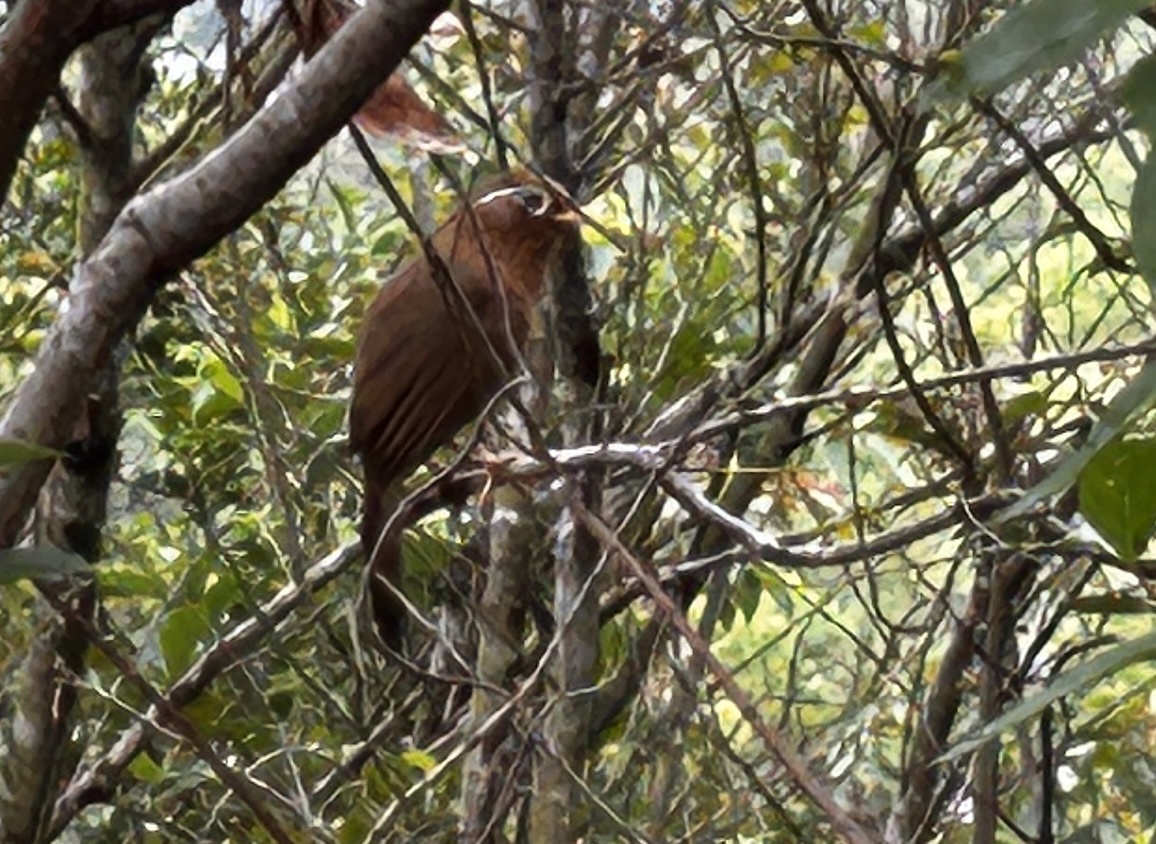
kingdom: Animalia
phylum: Chordata
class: Aves
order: Passeriformes
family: Leiothrichidae
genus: Garrulax
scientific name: Garrulax canorus
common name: Chinese hwamei
